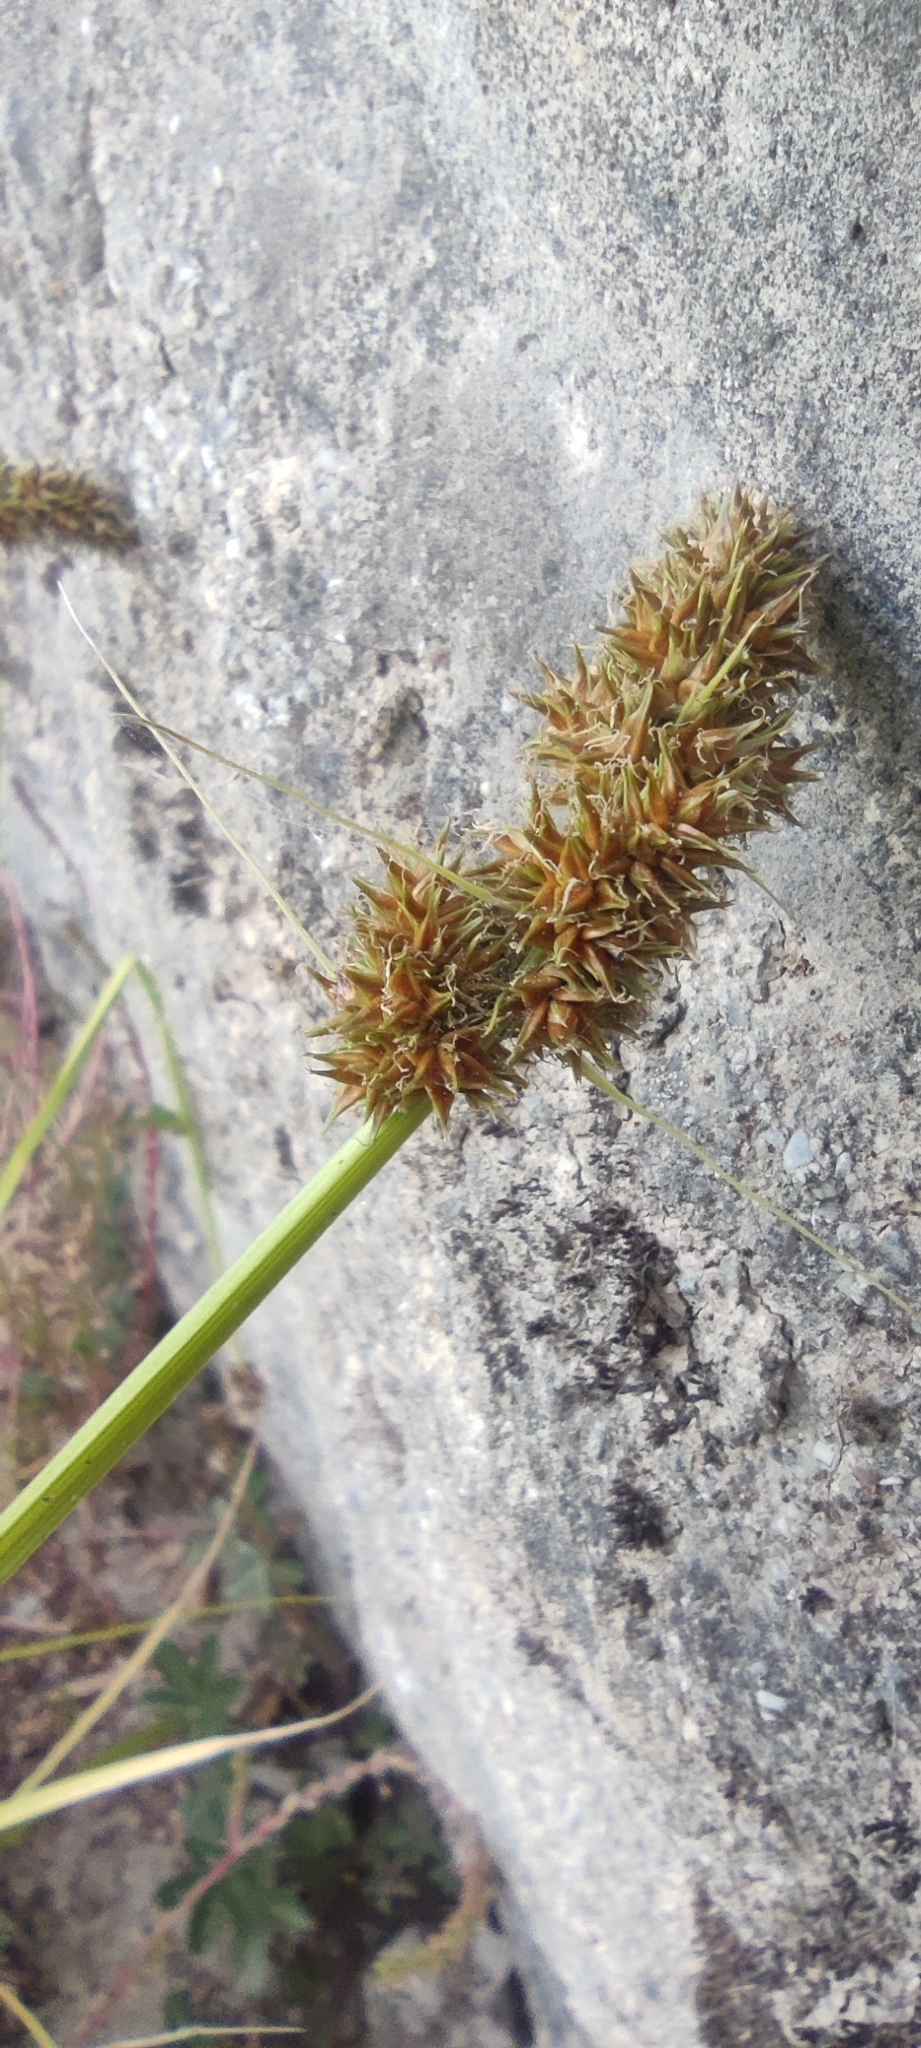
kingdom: Plantae
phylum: Tracheophyta
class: Liliopsida
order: Poales
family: Cyperaceae
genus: Carex
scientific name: Carex otrubae
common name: False fox-sedge
